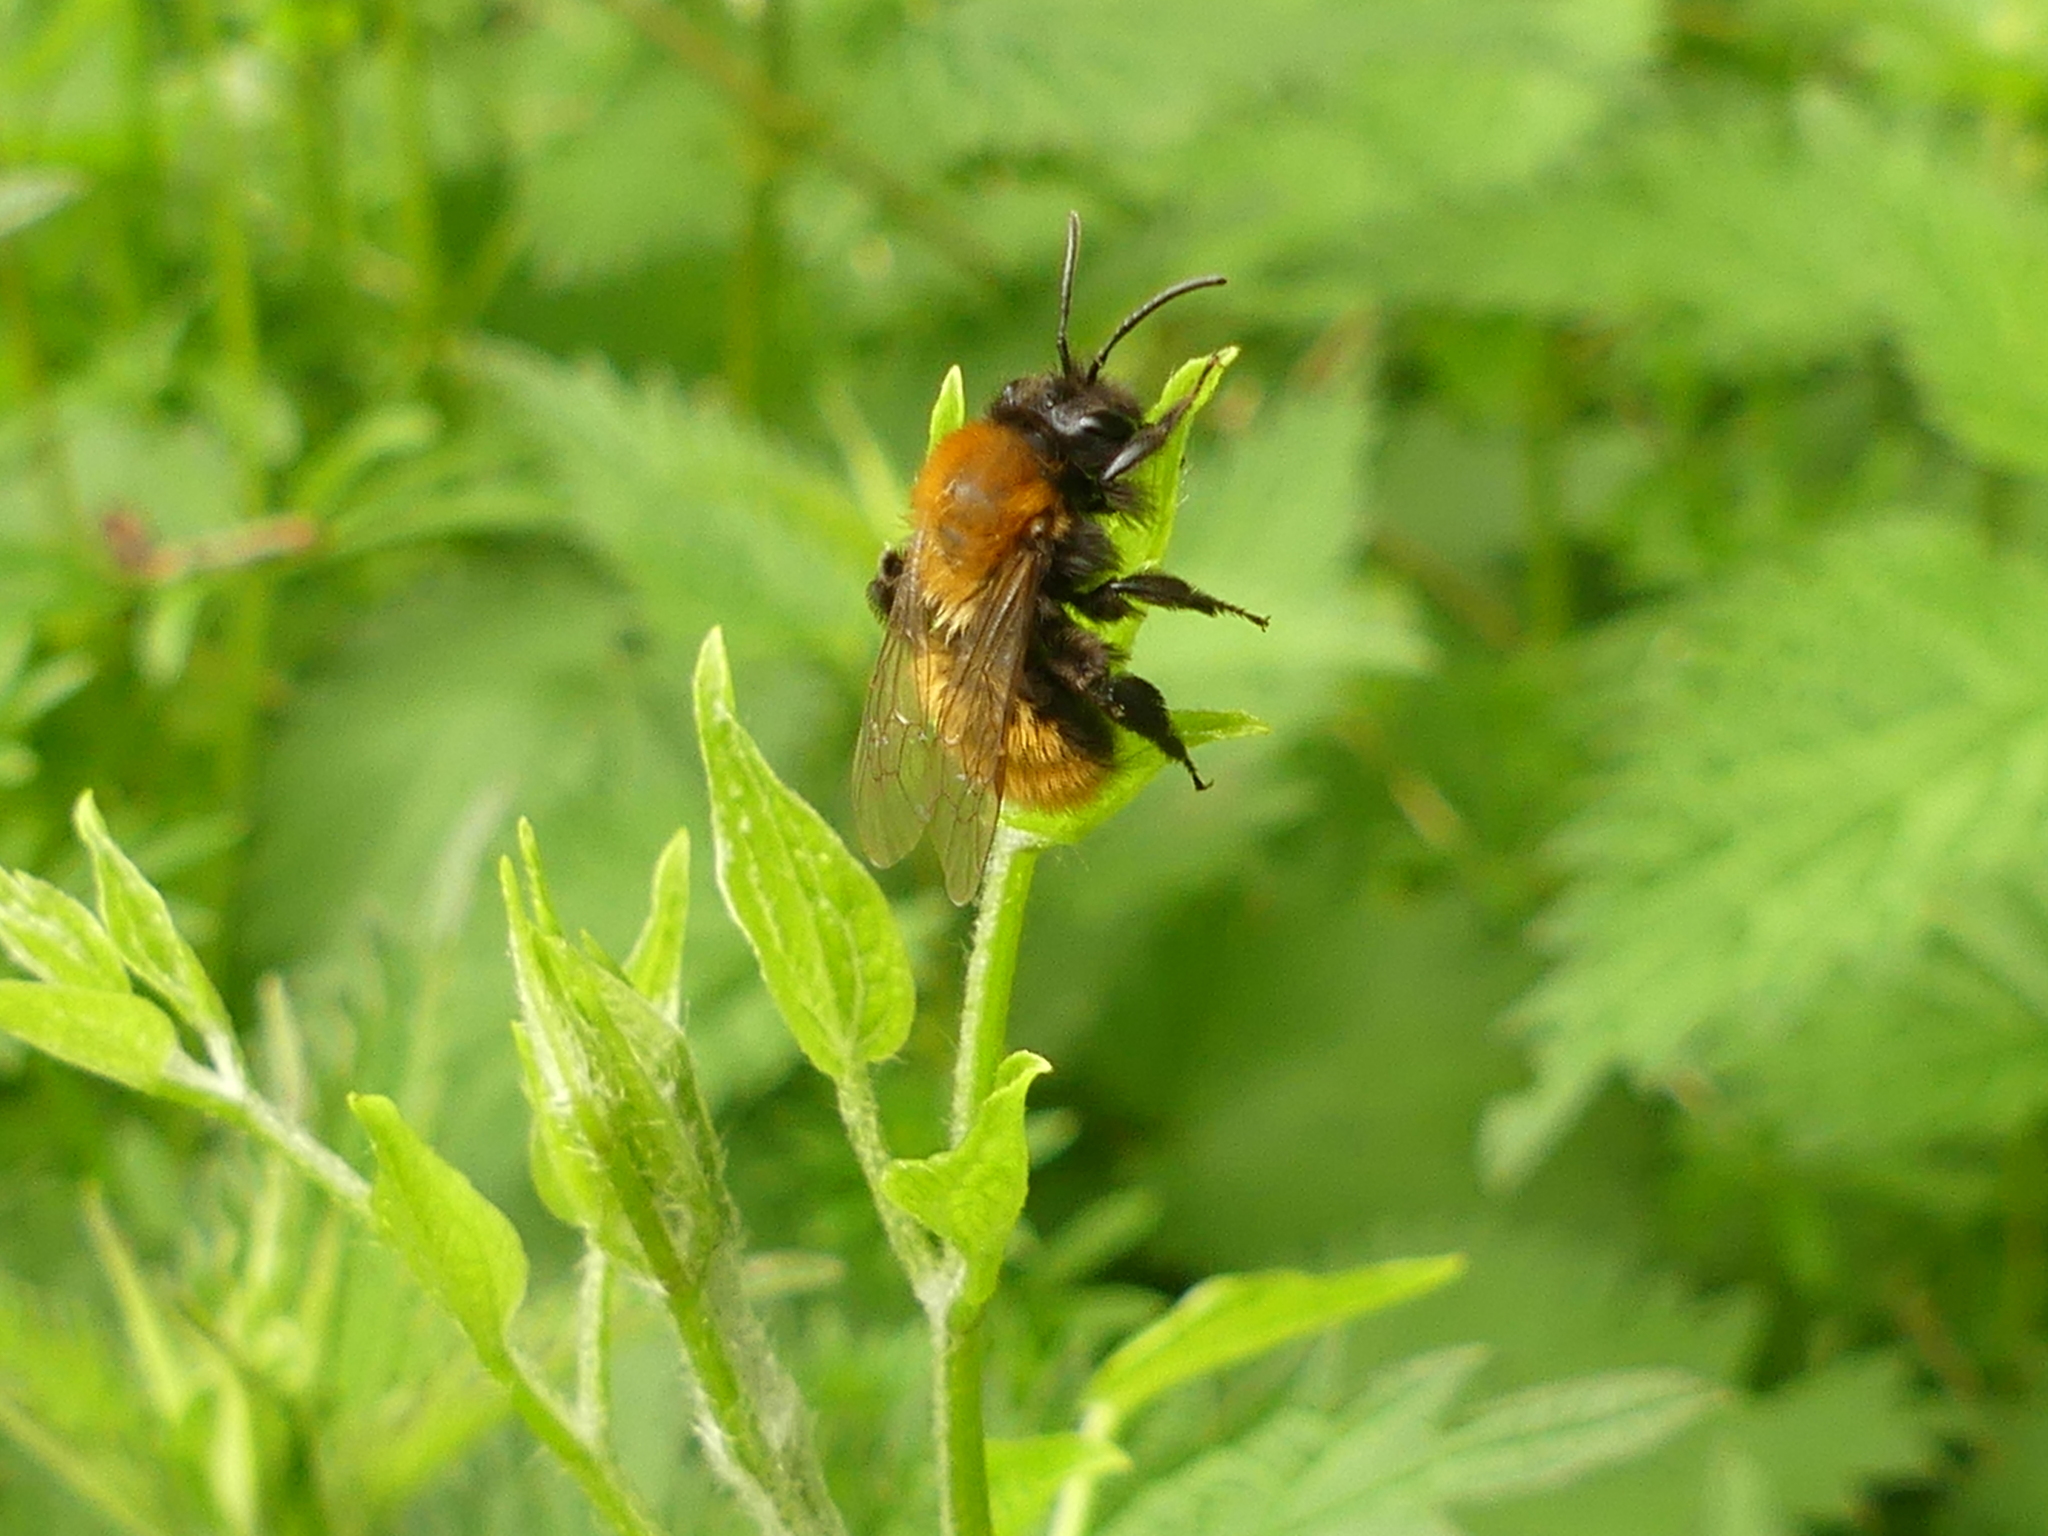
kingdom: Animalia
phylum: Arthropoda
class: Insecta
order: Hymenoptera
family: Andrenidae
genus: Andrena
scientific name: Andrena fulva
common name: Tawny mining bee
